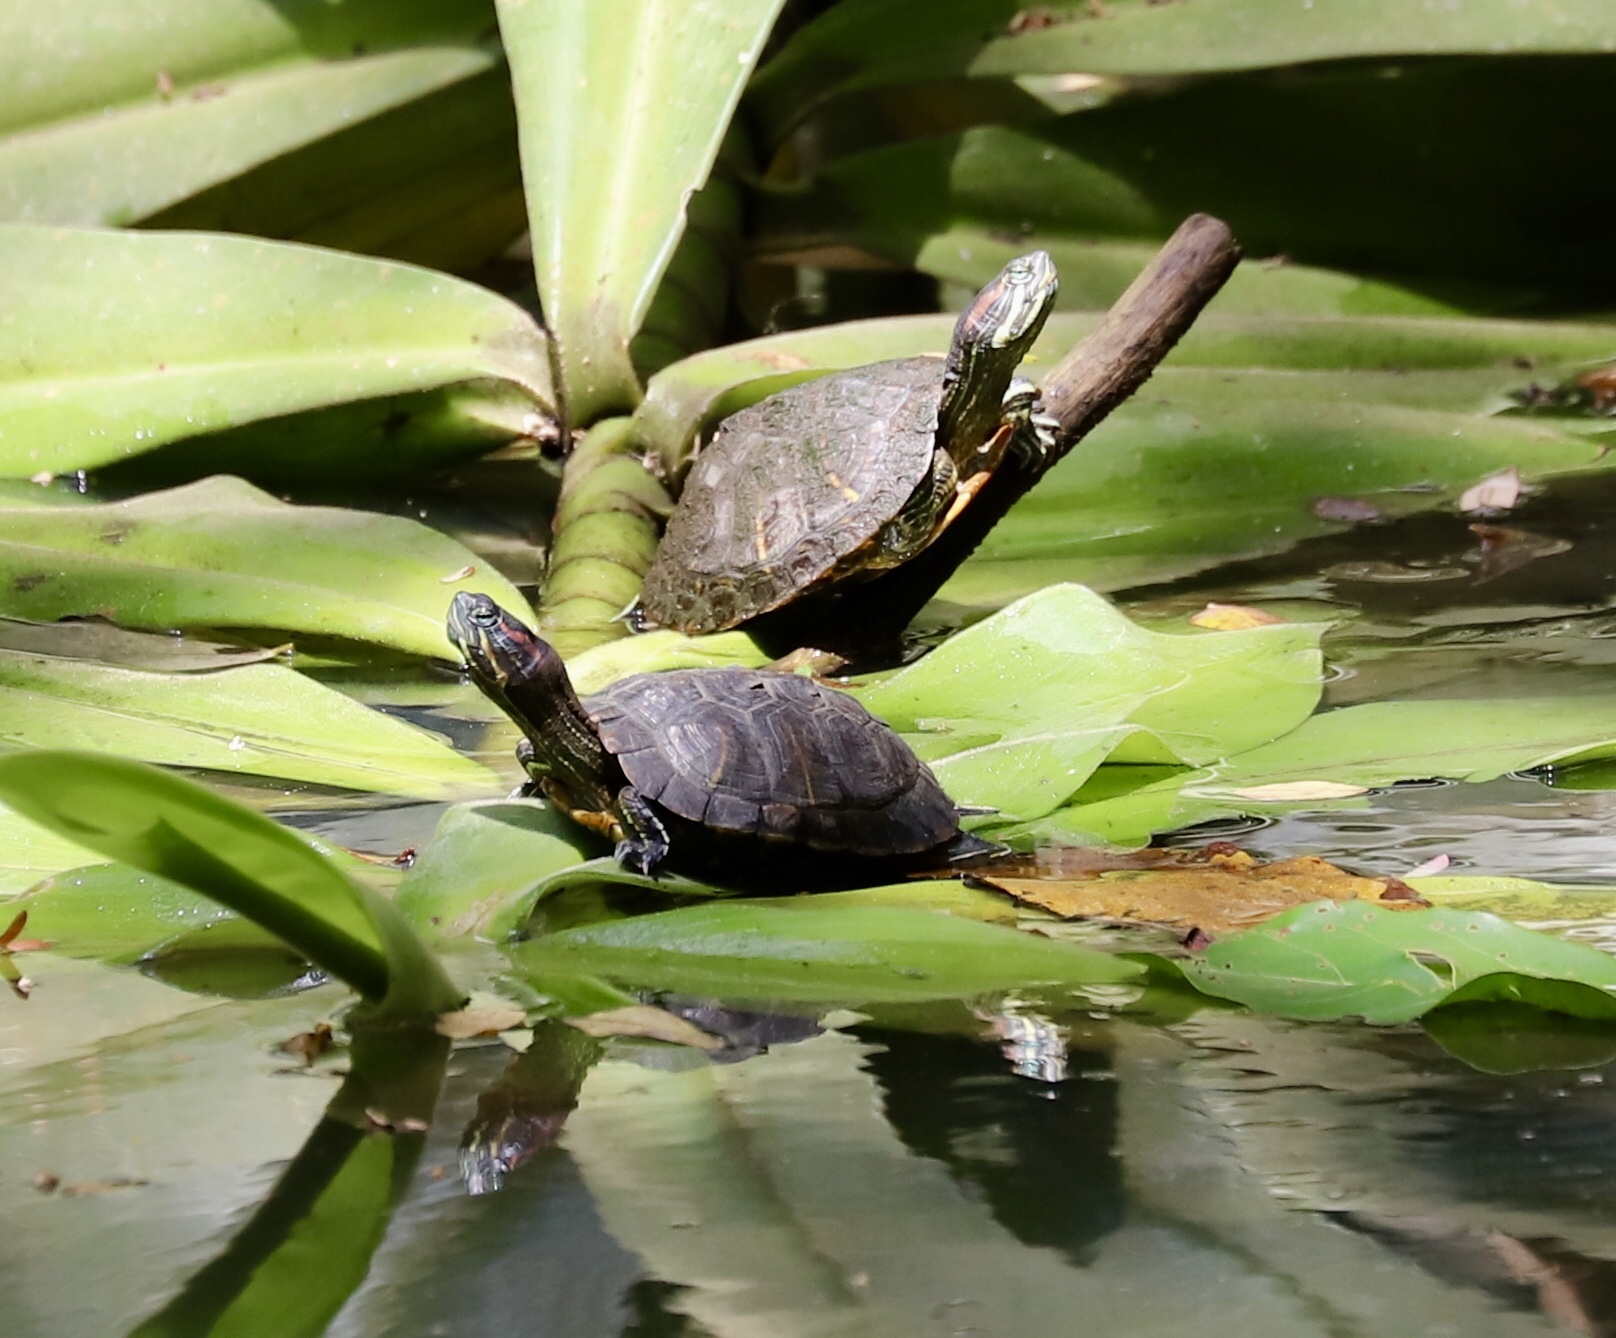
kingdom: Animalia
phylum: Chordata
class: Testudines
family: Emydidae
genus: Trachemys
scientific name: Trachemys scripta
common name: Slider
